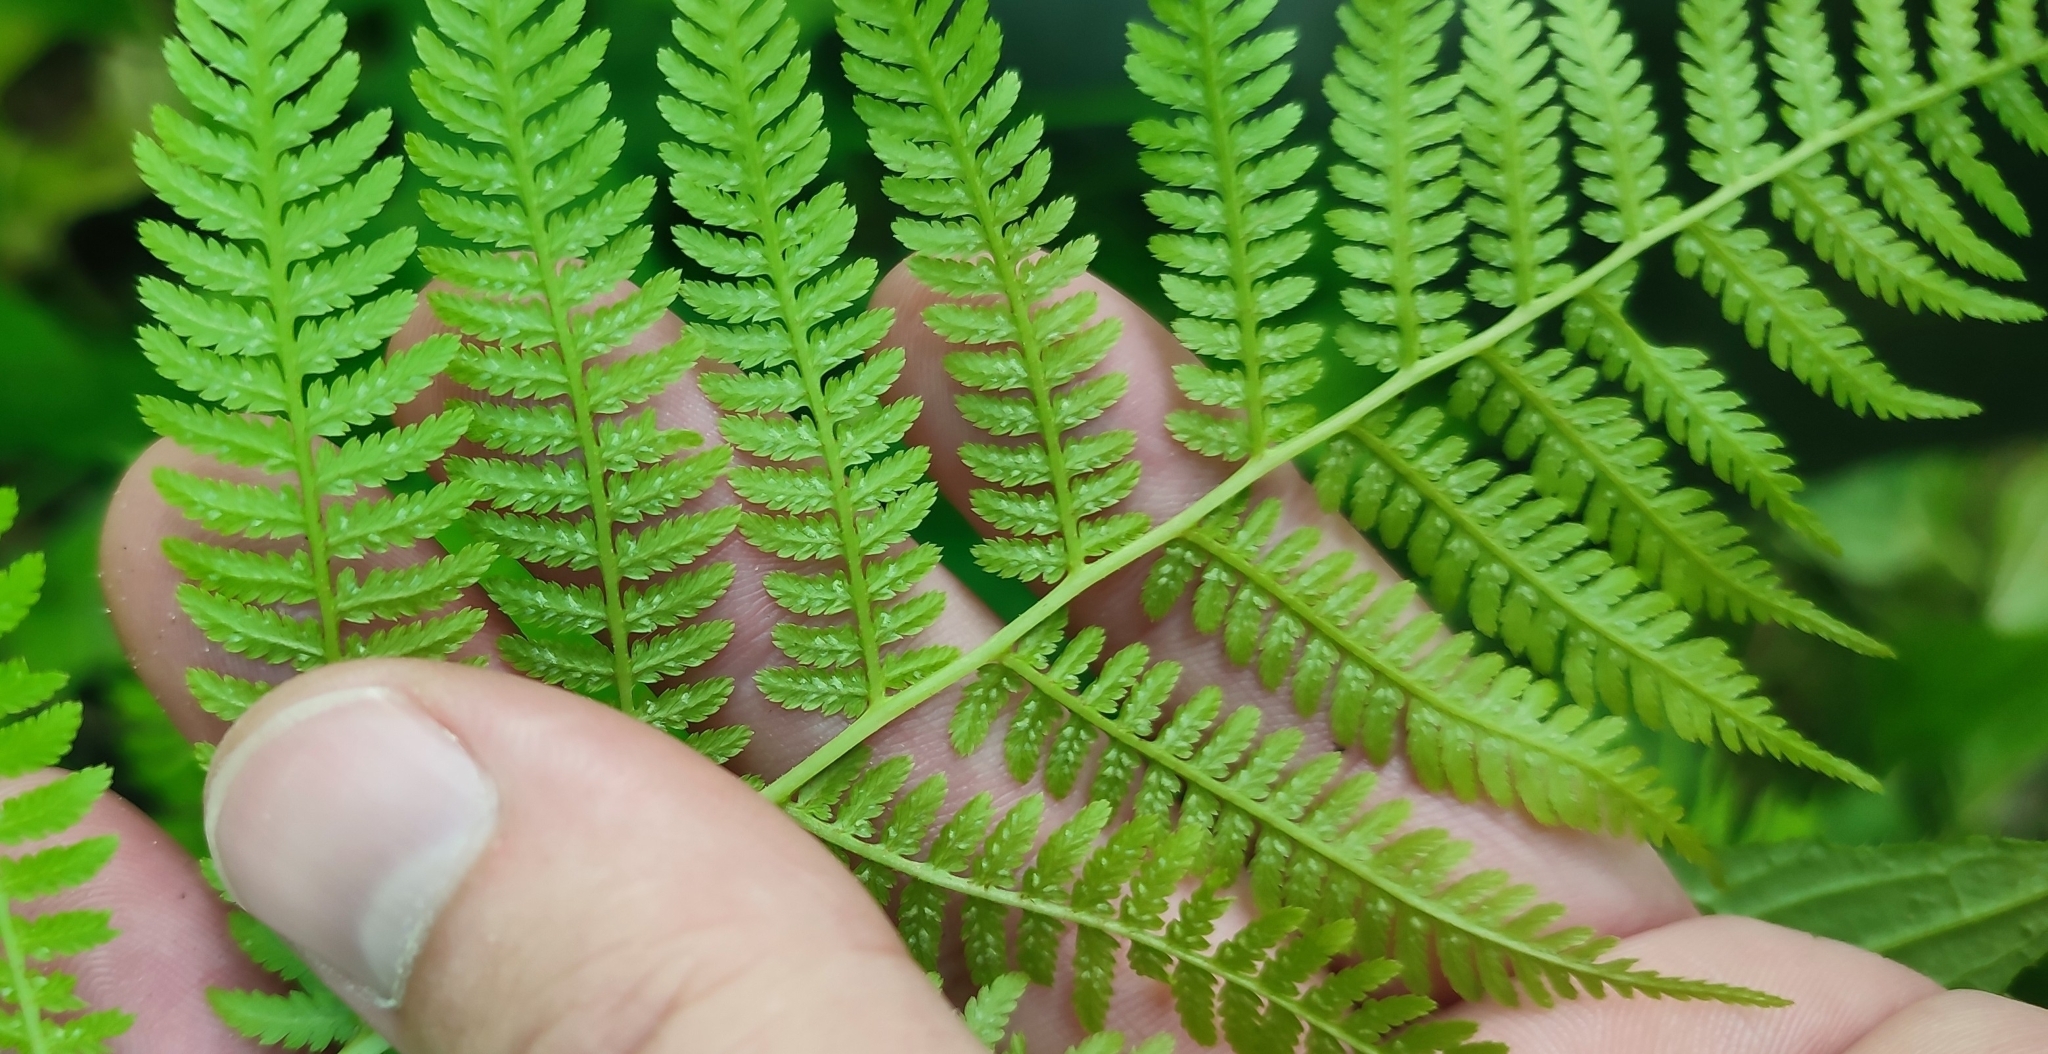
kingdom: Plantae
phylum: Tracheophyta
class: Polypodiopsida
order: Polypodiales
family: Athyriaceae
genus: Athyrium
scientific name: Athyrium filix-femina
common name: Lady fern
